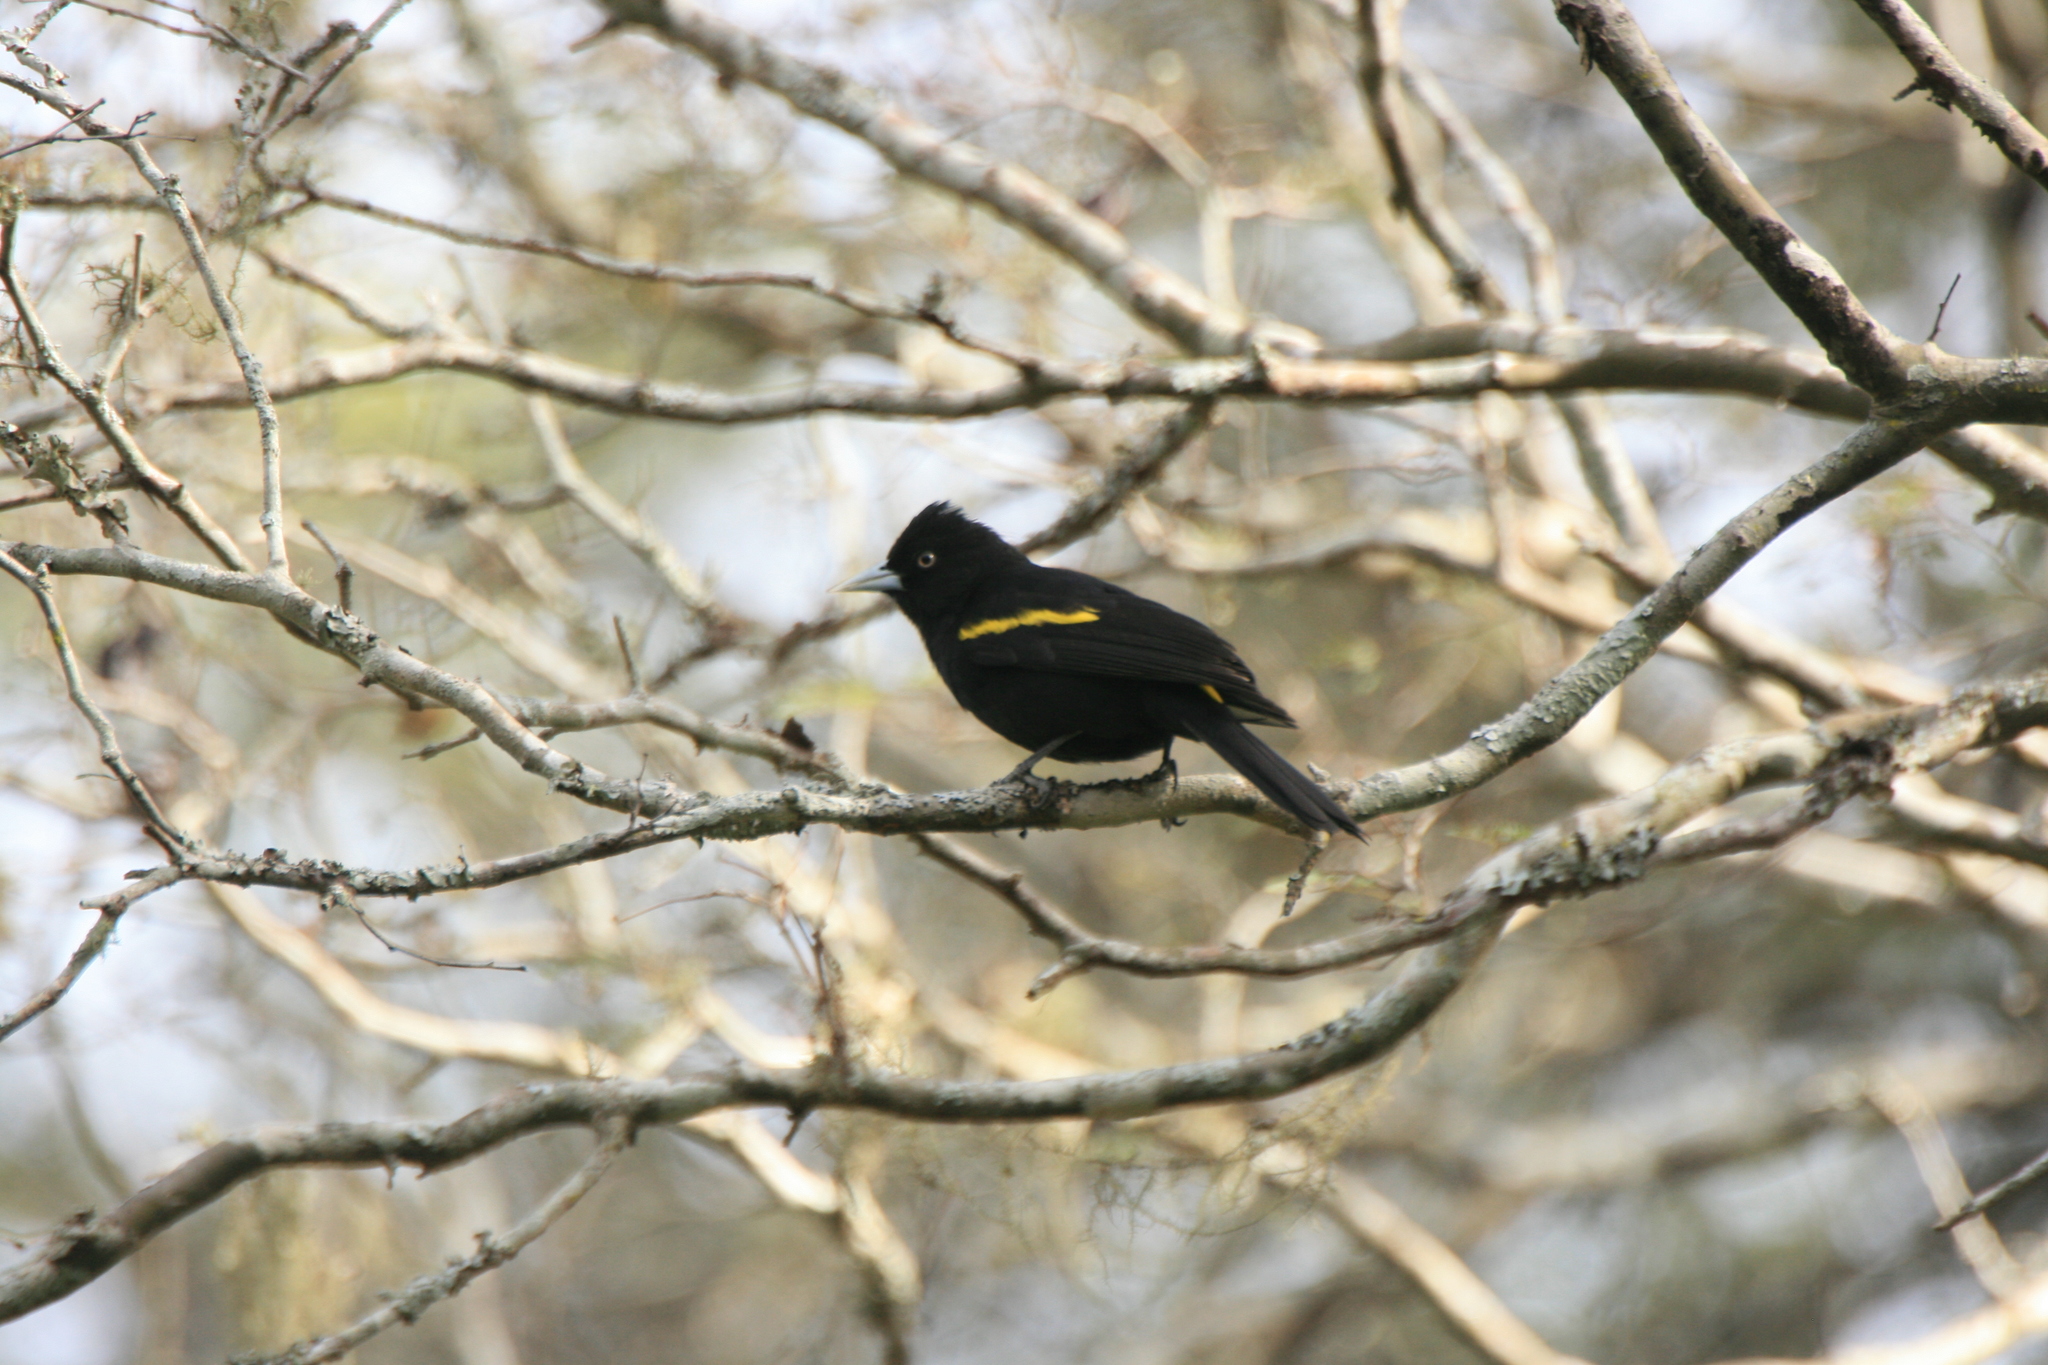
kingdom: Animalia
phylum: Chordata
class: Aves
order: Passeriformes
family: Icteridae
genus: Cacicus
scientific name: Cacicus chrysopterus
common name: Golden-winged cacique
